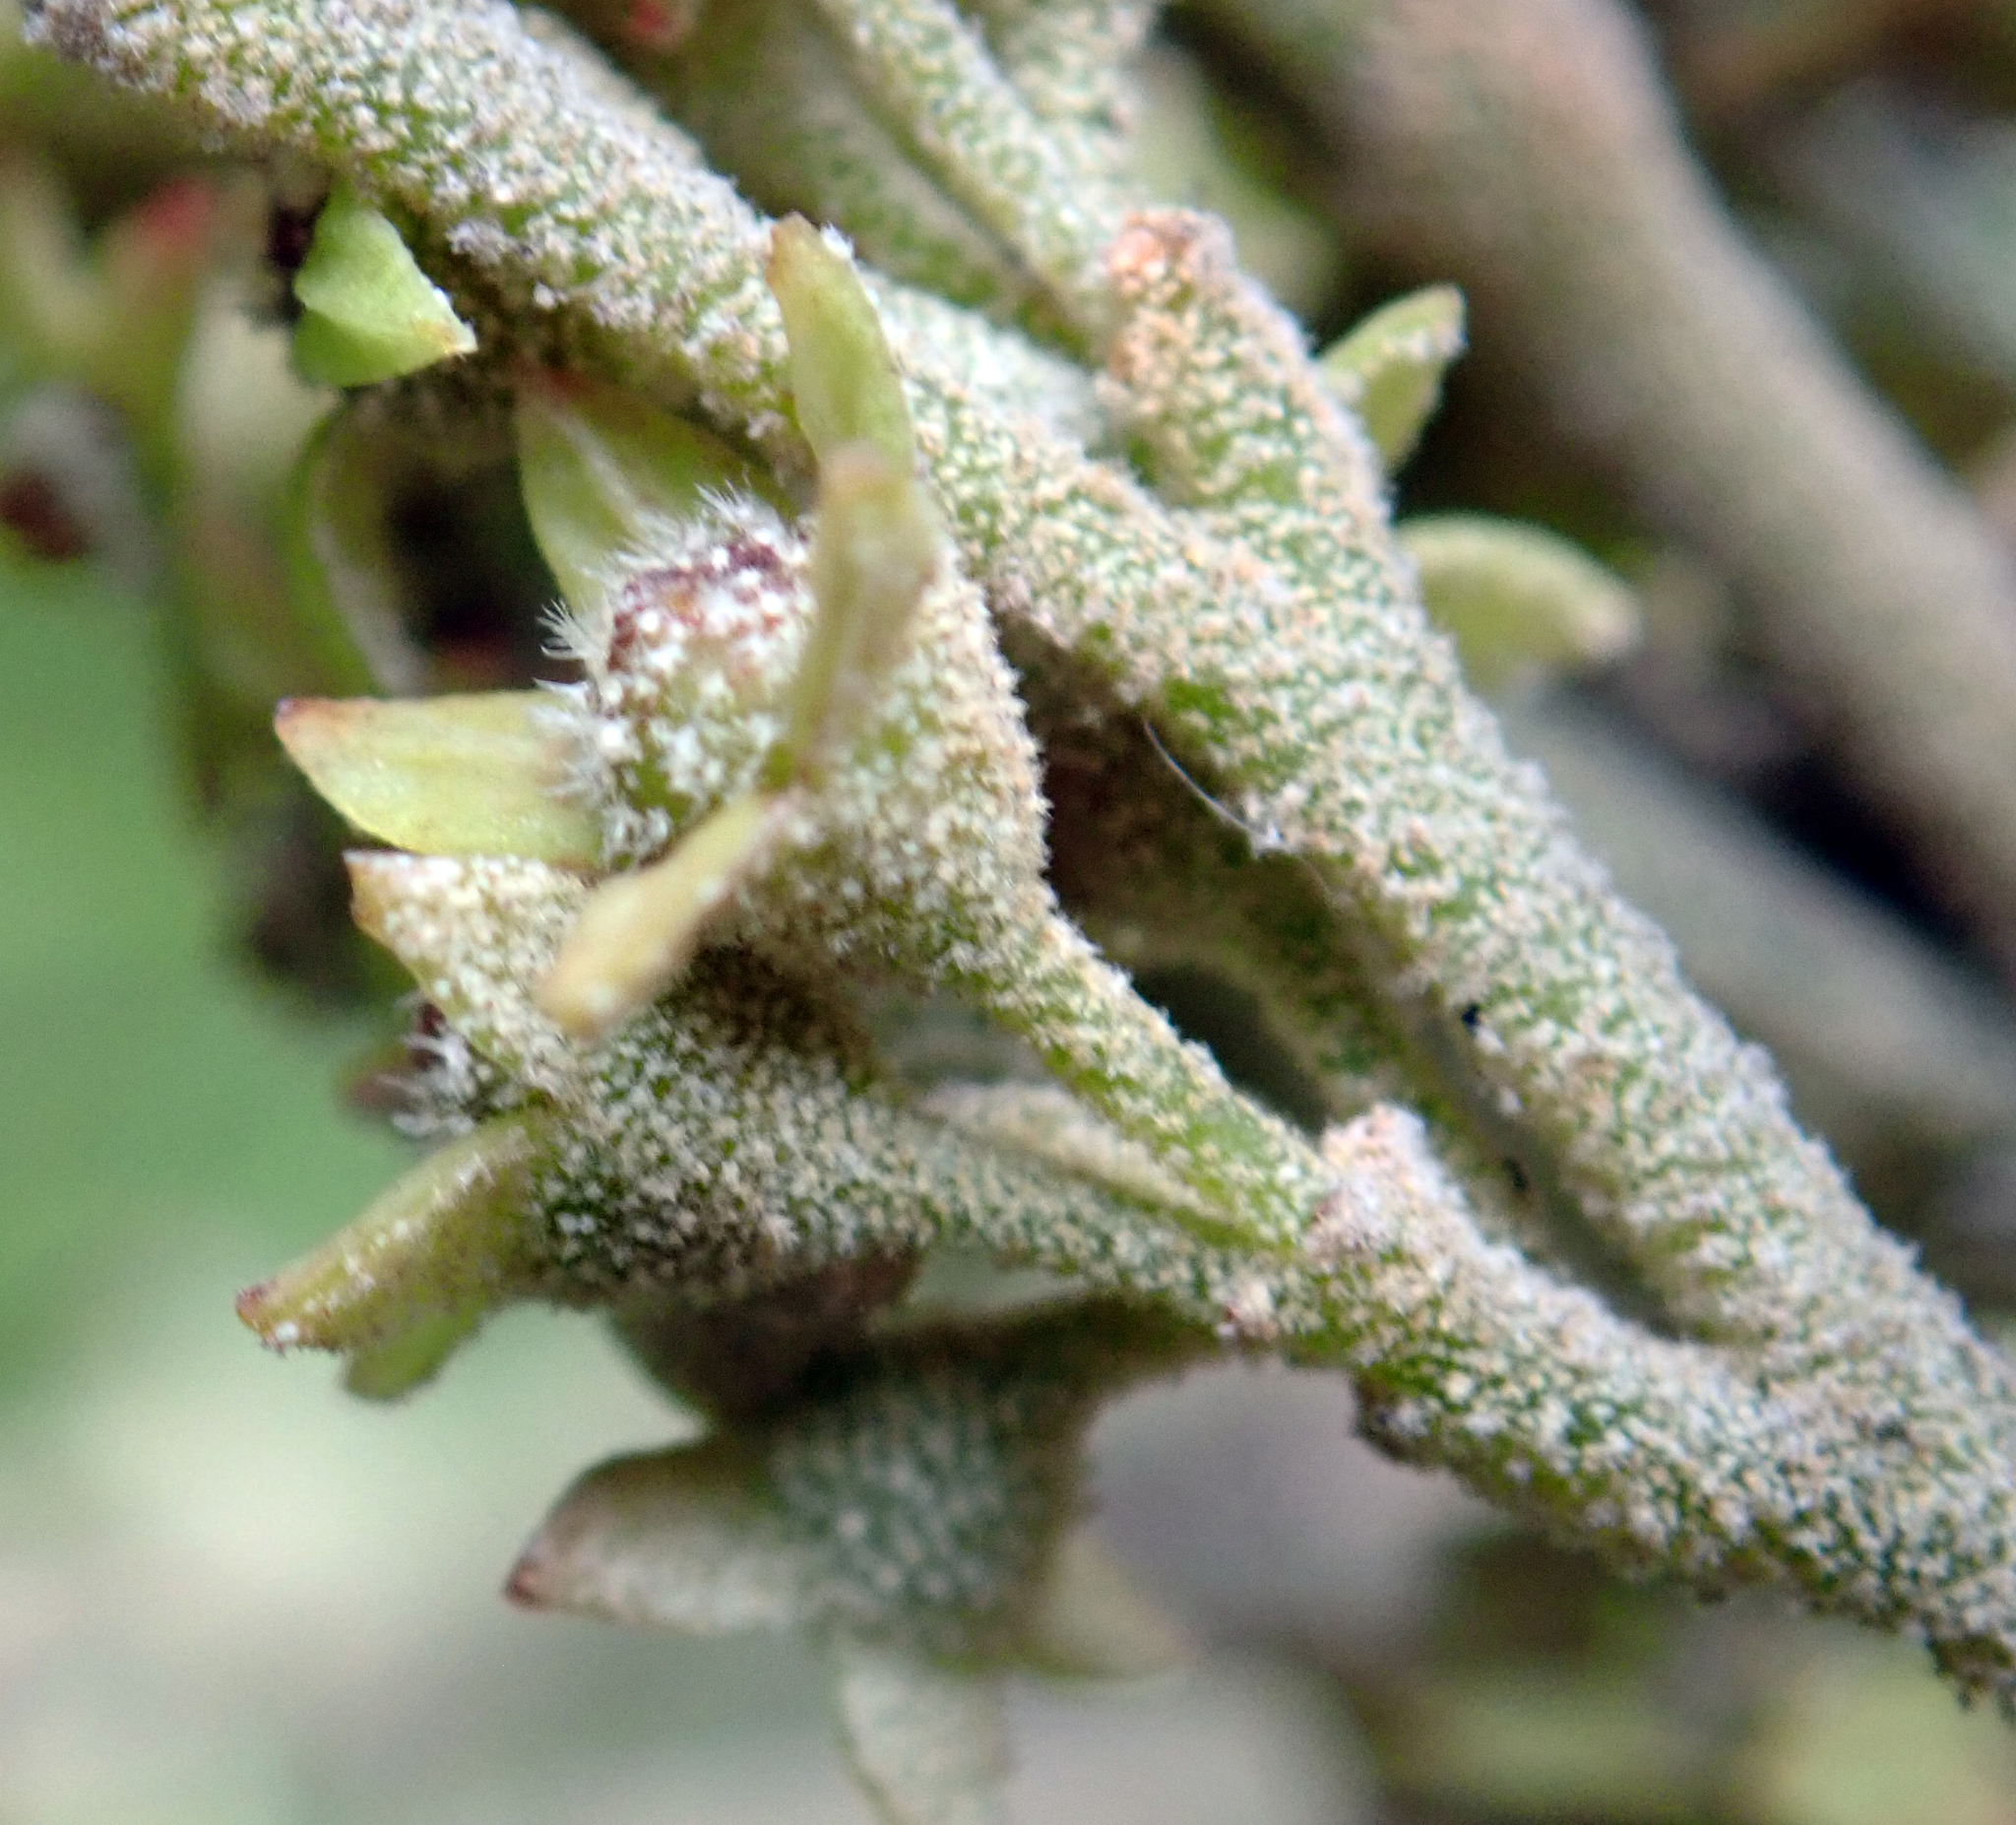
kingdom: Plantae
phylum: Tracheophyta
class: Magnoliopsida
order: Rosales
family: Rhamnaceae
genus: Pomaderris
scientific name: Pomaderris apetala
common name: Hazel pomaderris
